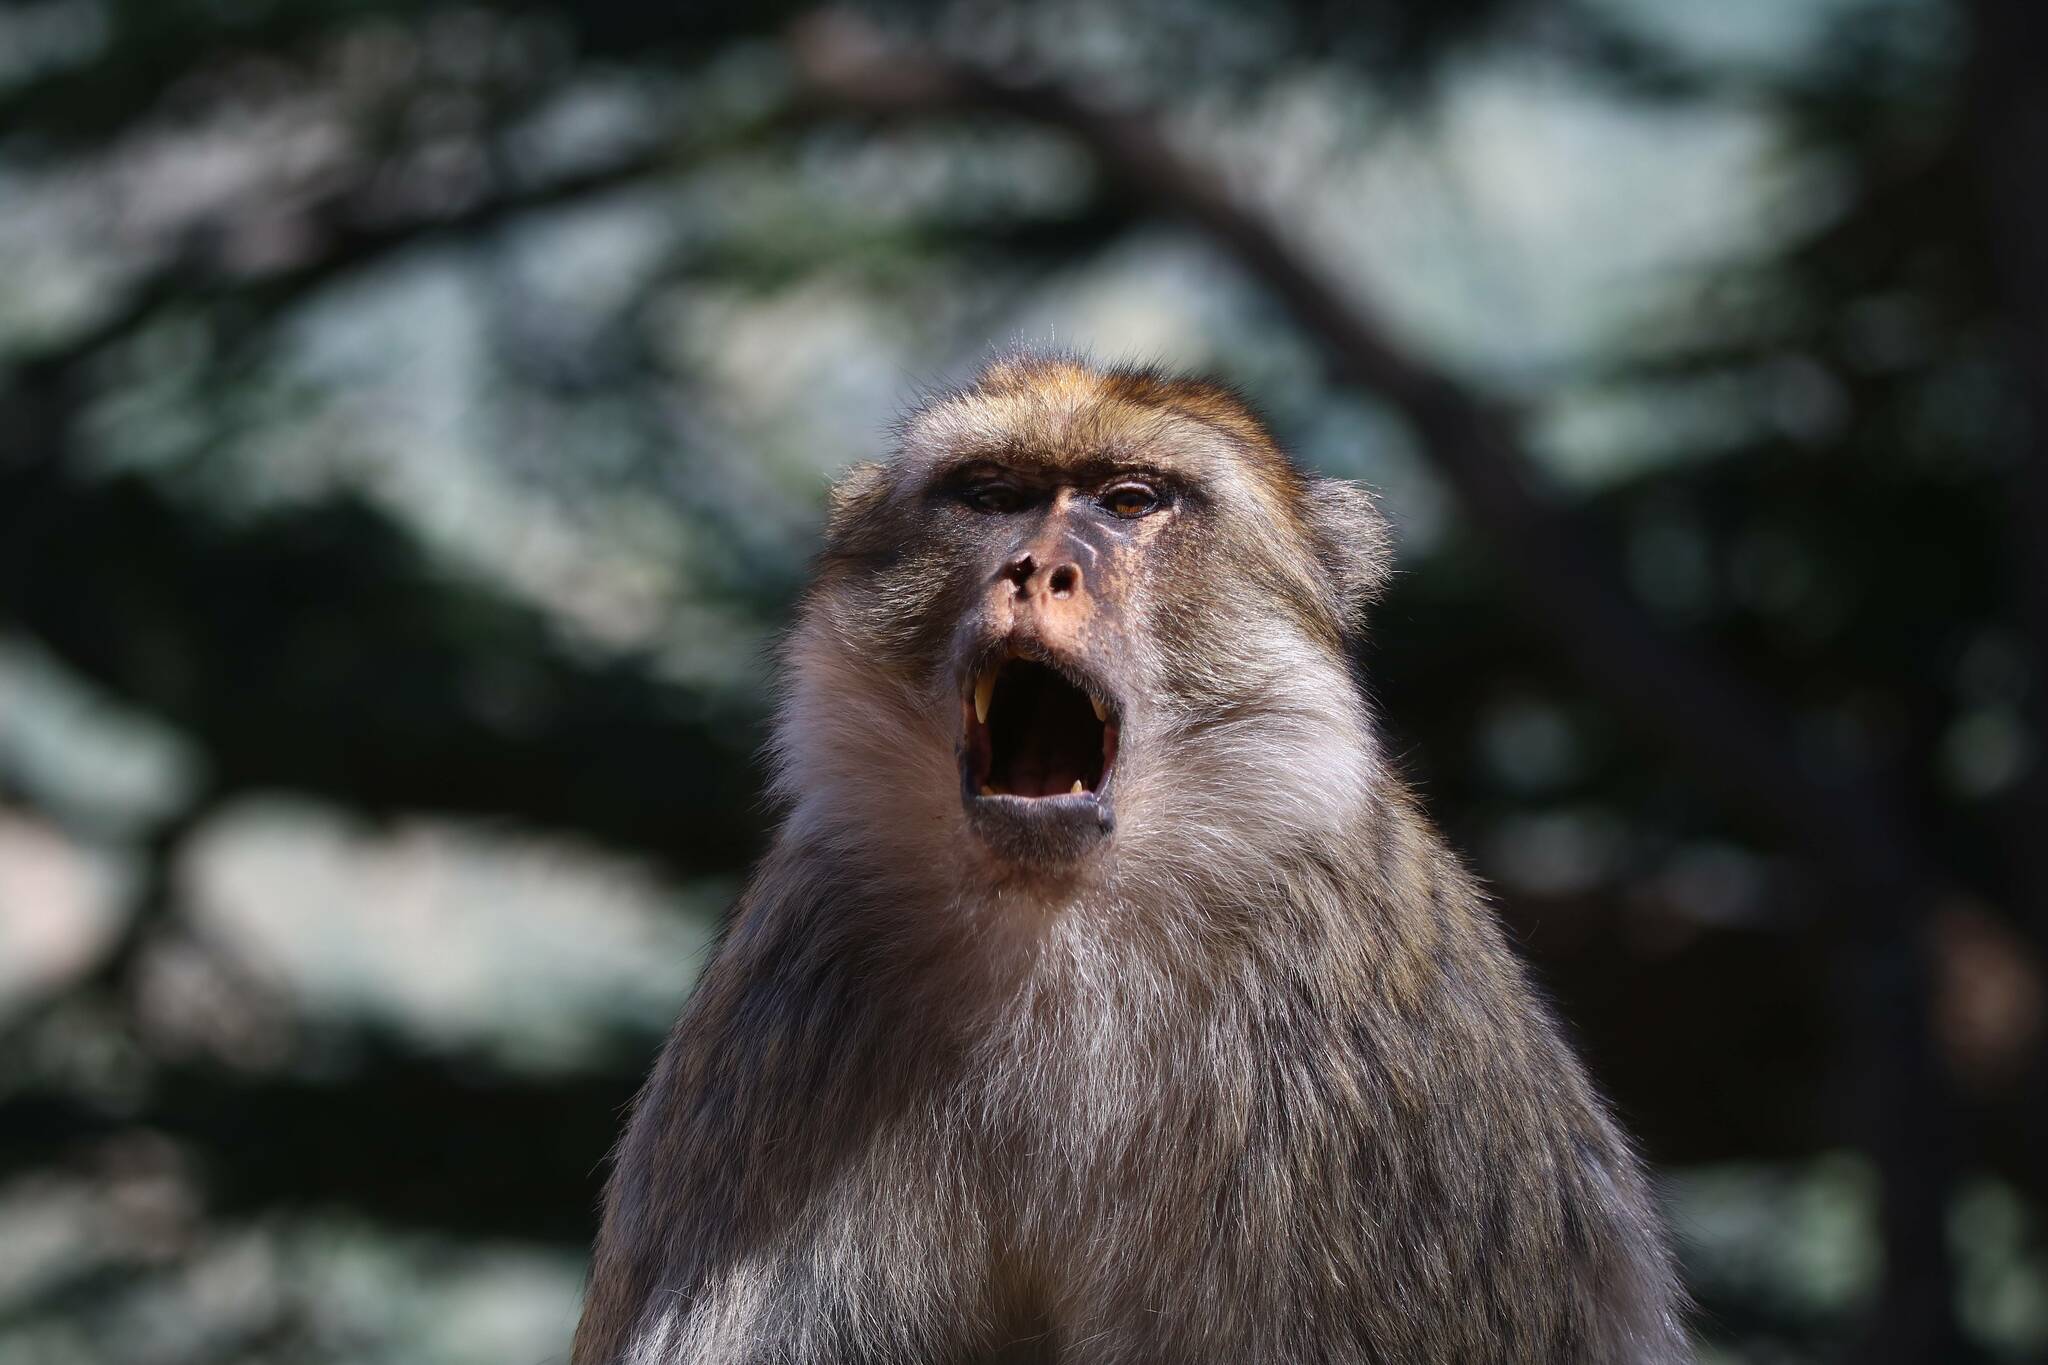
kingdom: Animalia
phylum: Chordata
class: Mammalia
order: Primates
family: Cercopithecidae
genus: Macaca
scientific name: Macaca sylvanus
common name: Barbary macaque
